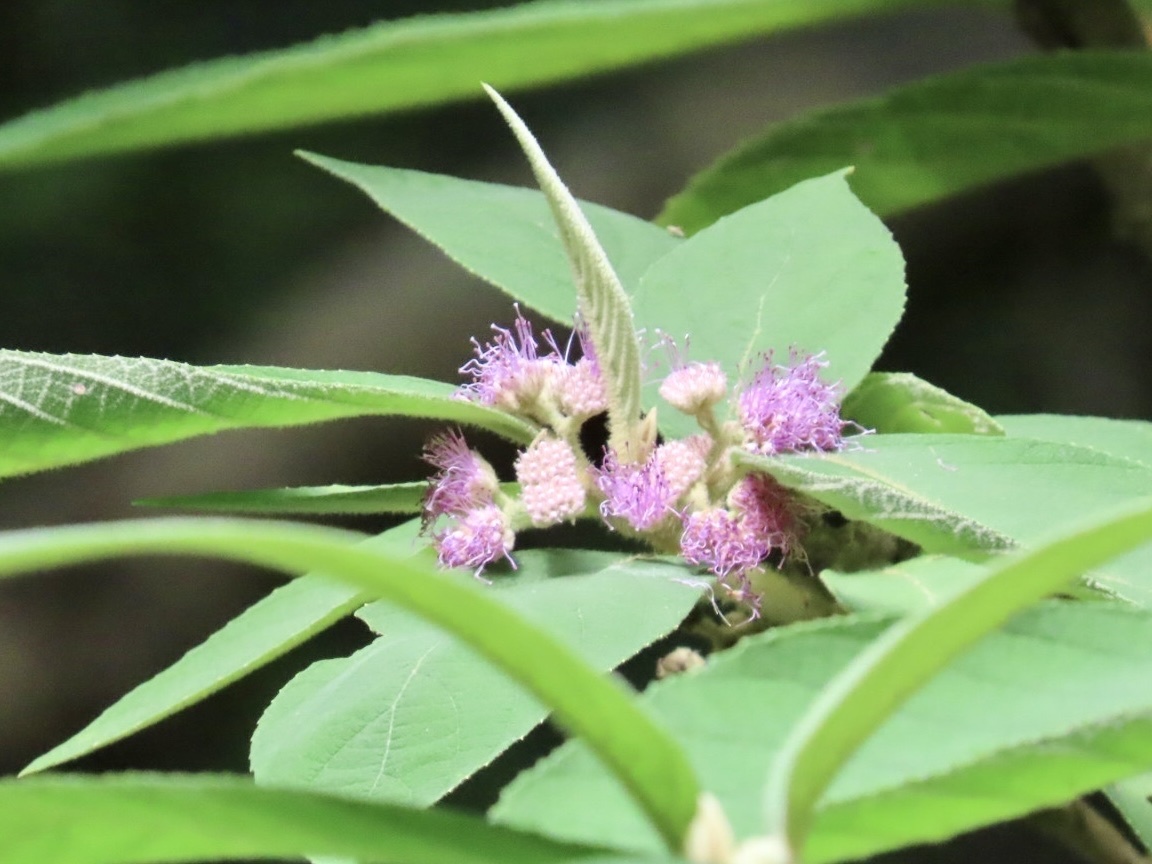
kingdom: Plantae
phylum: Tracheophyta
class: Magnoliopsida
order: Lamiales
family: Lamiaceae
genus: Callicarpa
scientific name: Callicarpa kochiana
